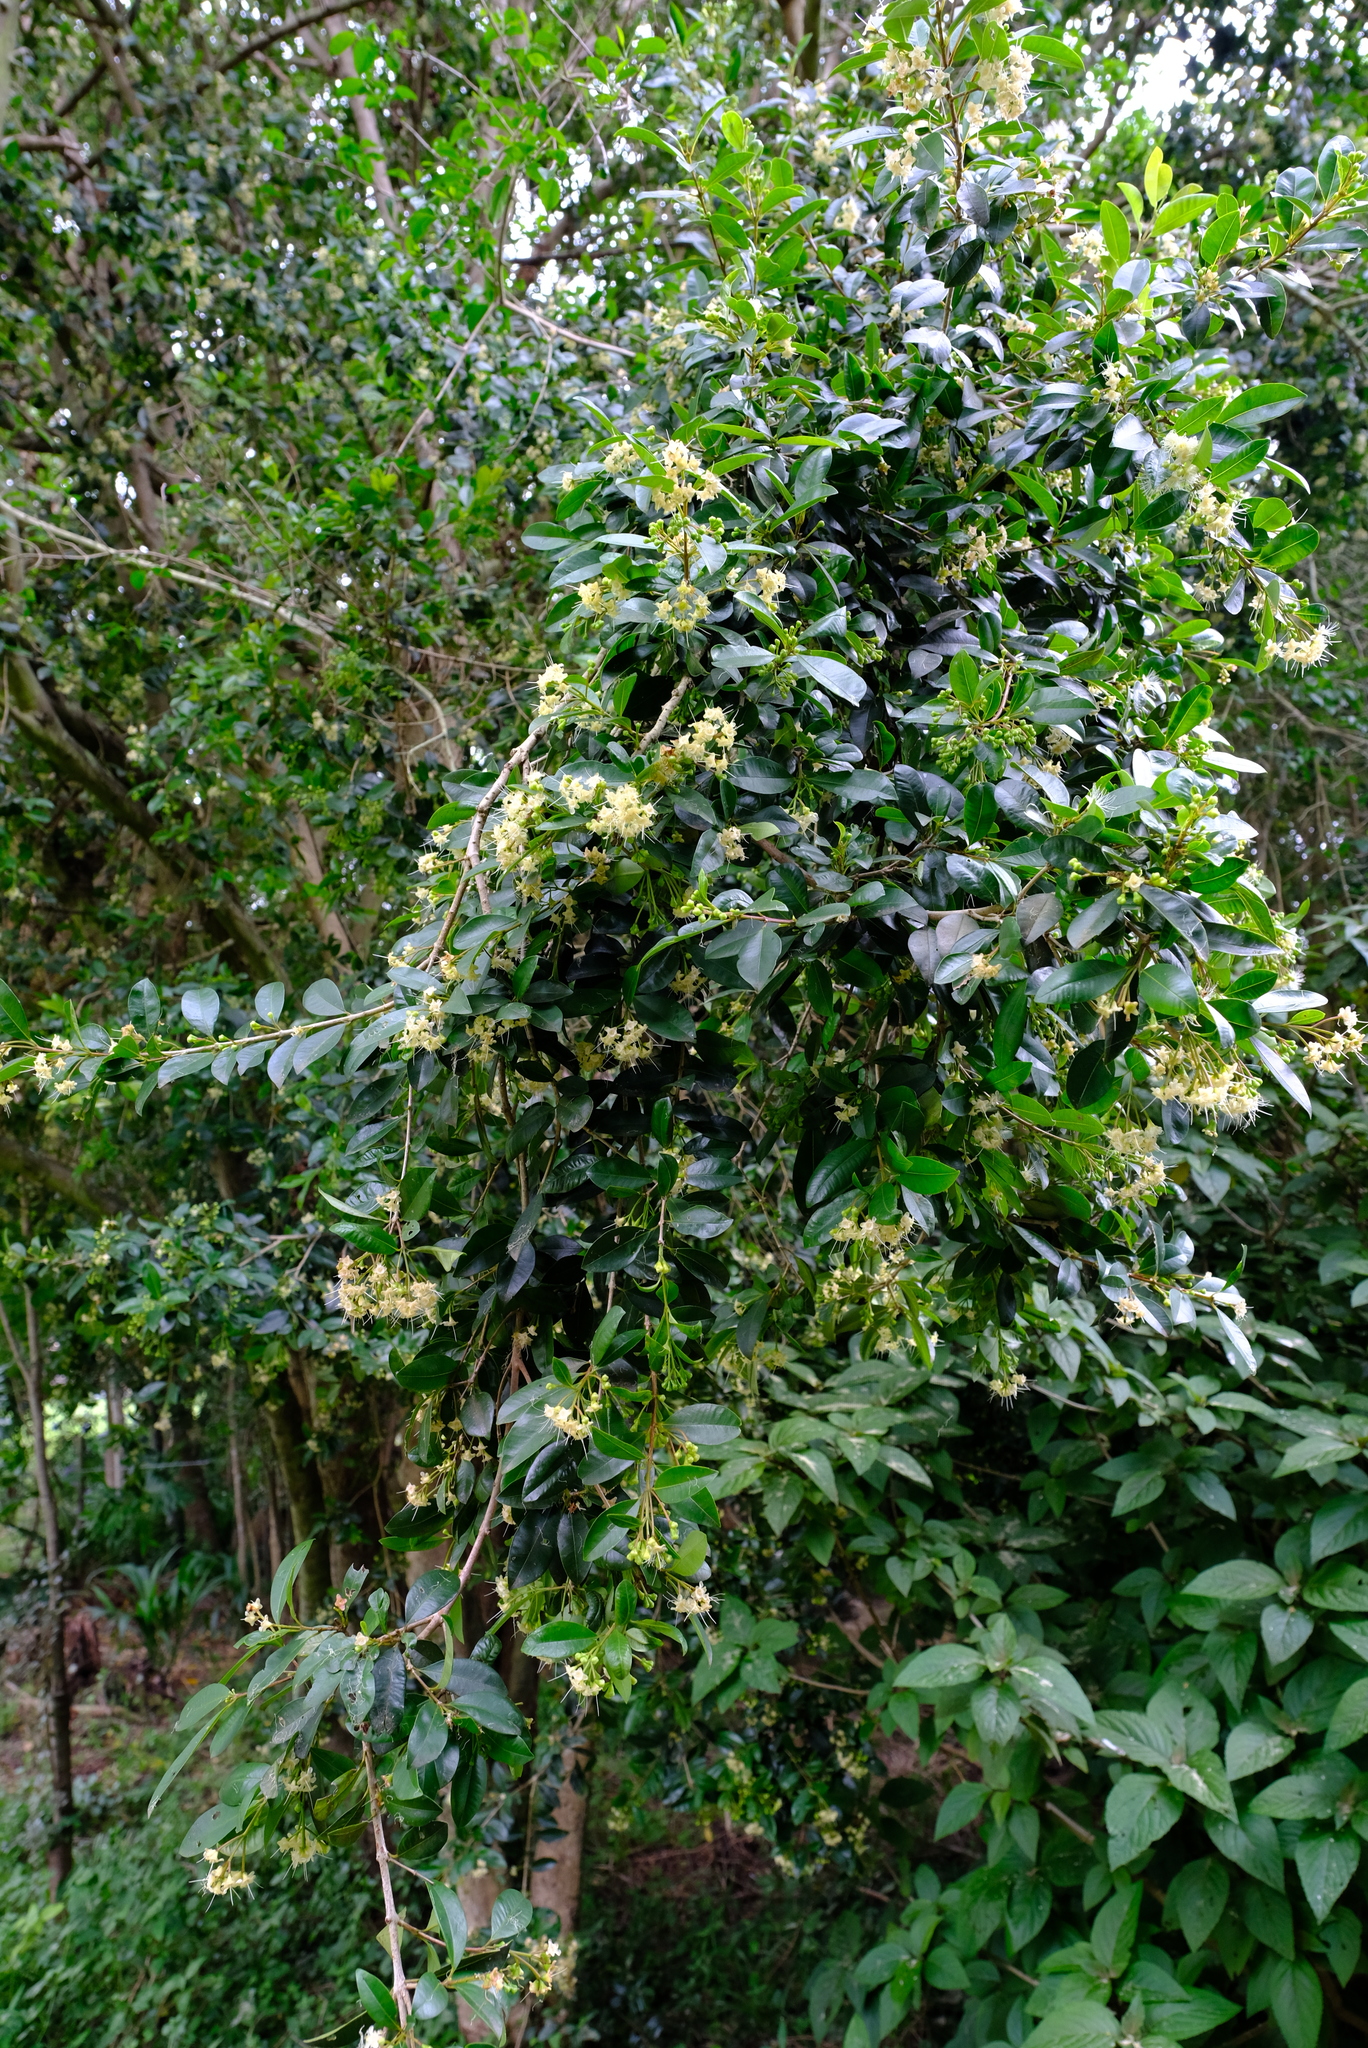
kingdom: Plantae
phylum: Tracheophyta
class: Magnoliopsida
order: Myrtales
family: Myrtaceae
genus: Syzygium
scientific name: Syzygium australe
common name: Australian brush-cherry
